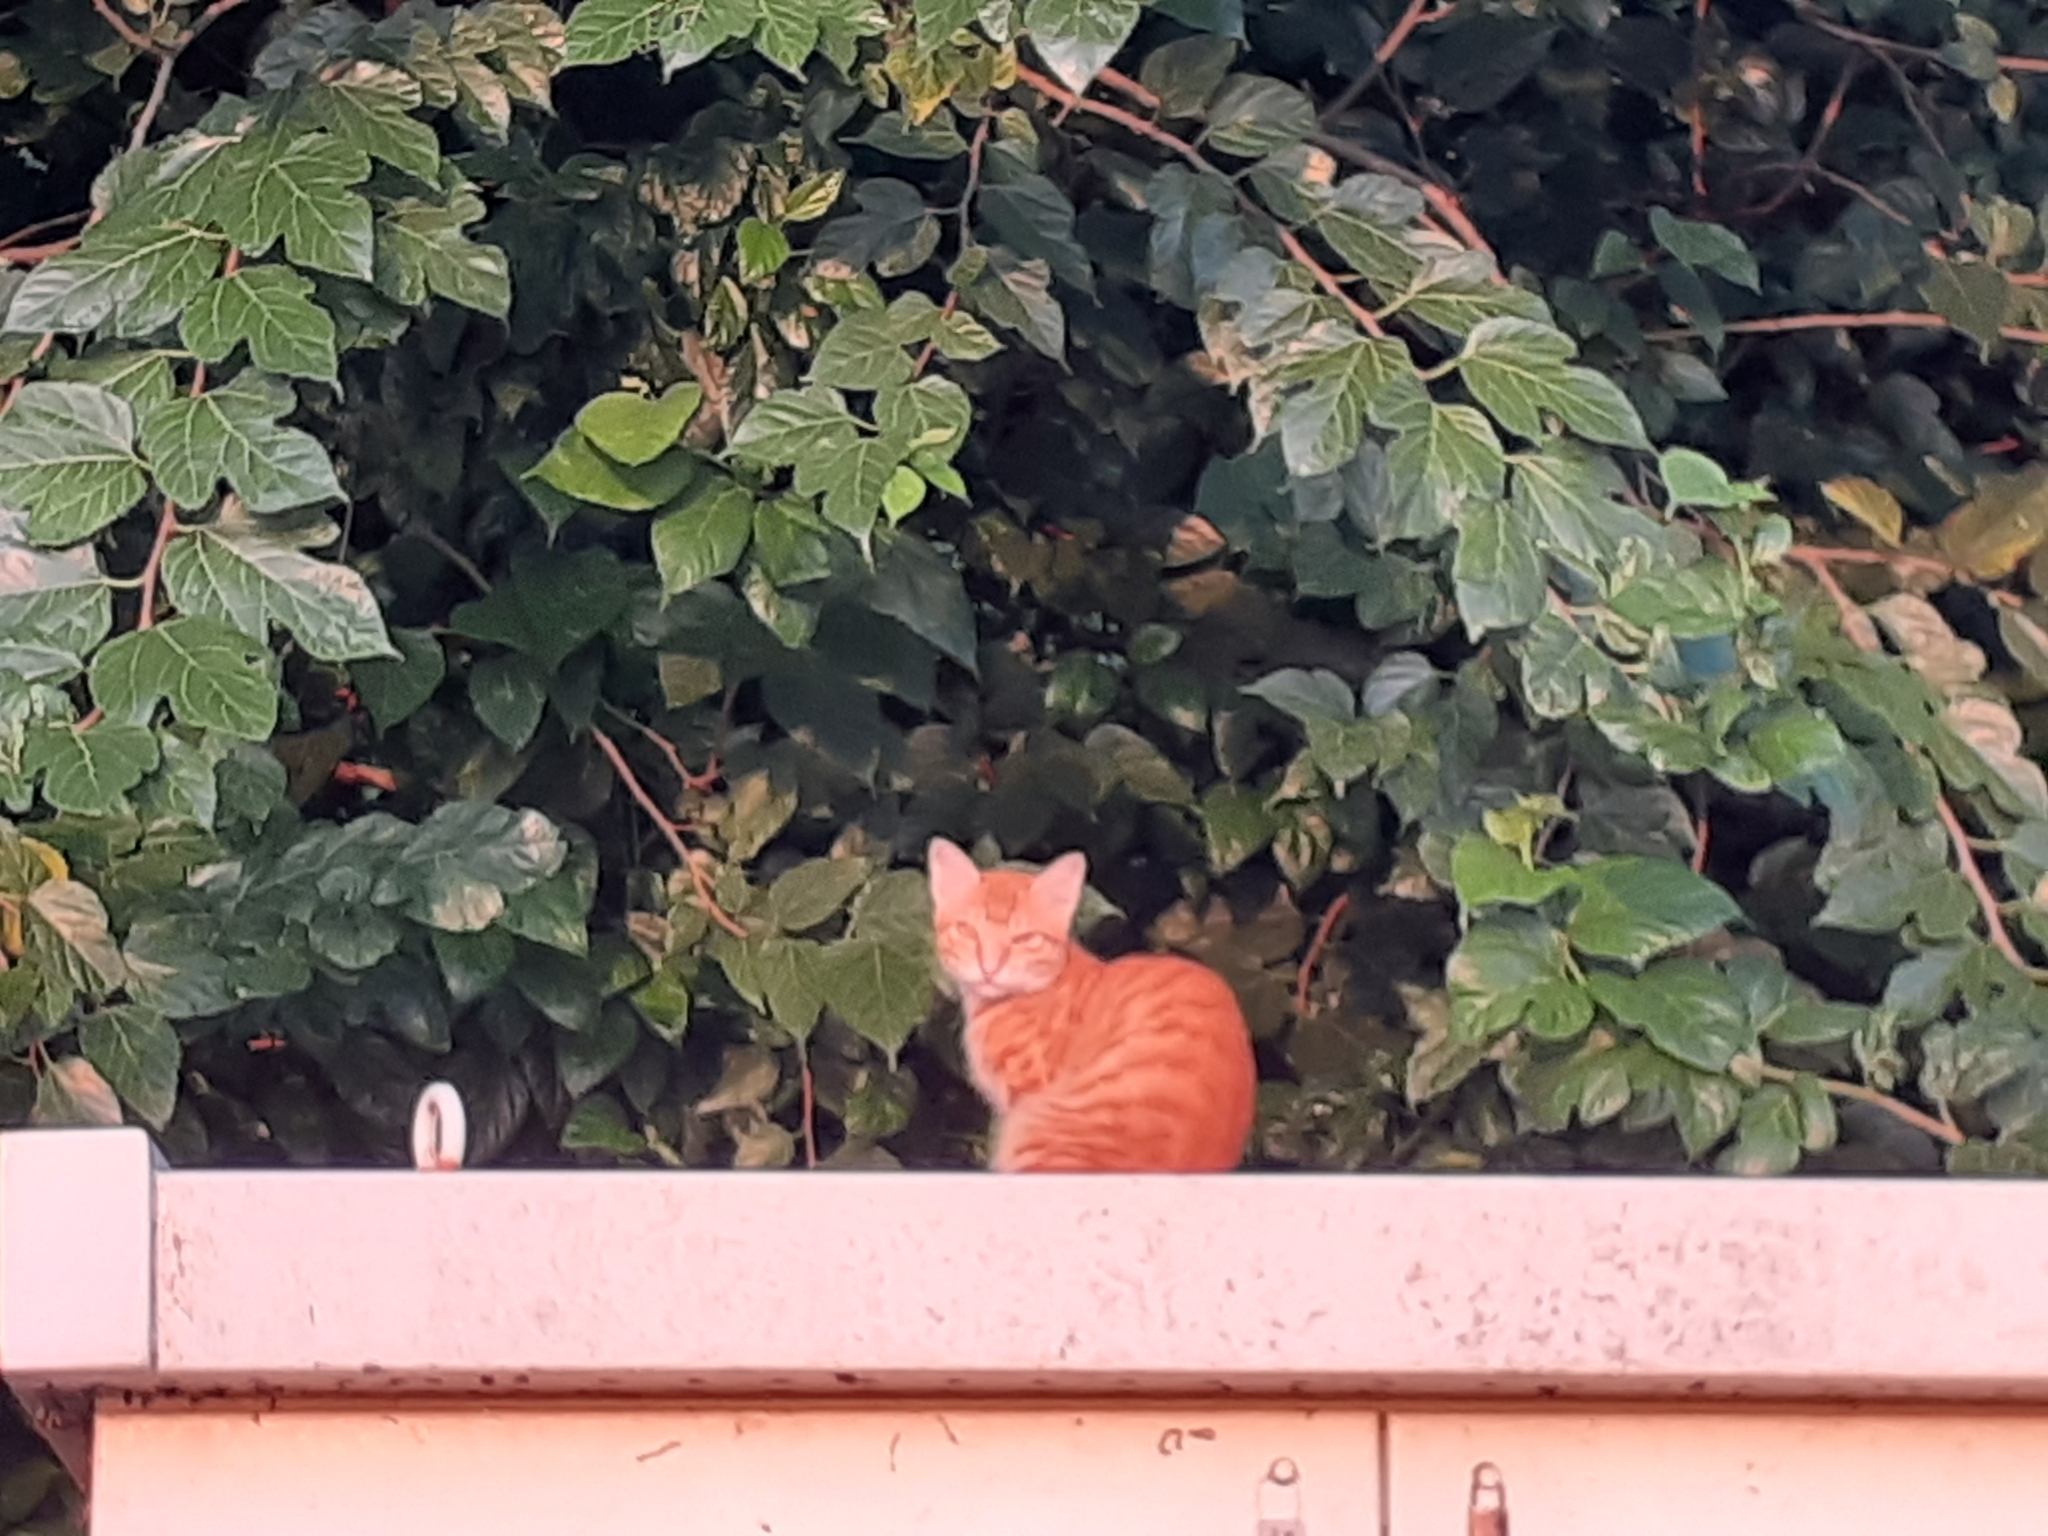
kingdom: Animalia
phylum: Chordata
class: Mammalia
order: Carnivora
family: Felidae
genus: Felis
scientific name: Felis catus
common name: Domestic cat
